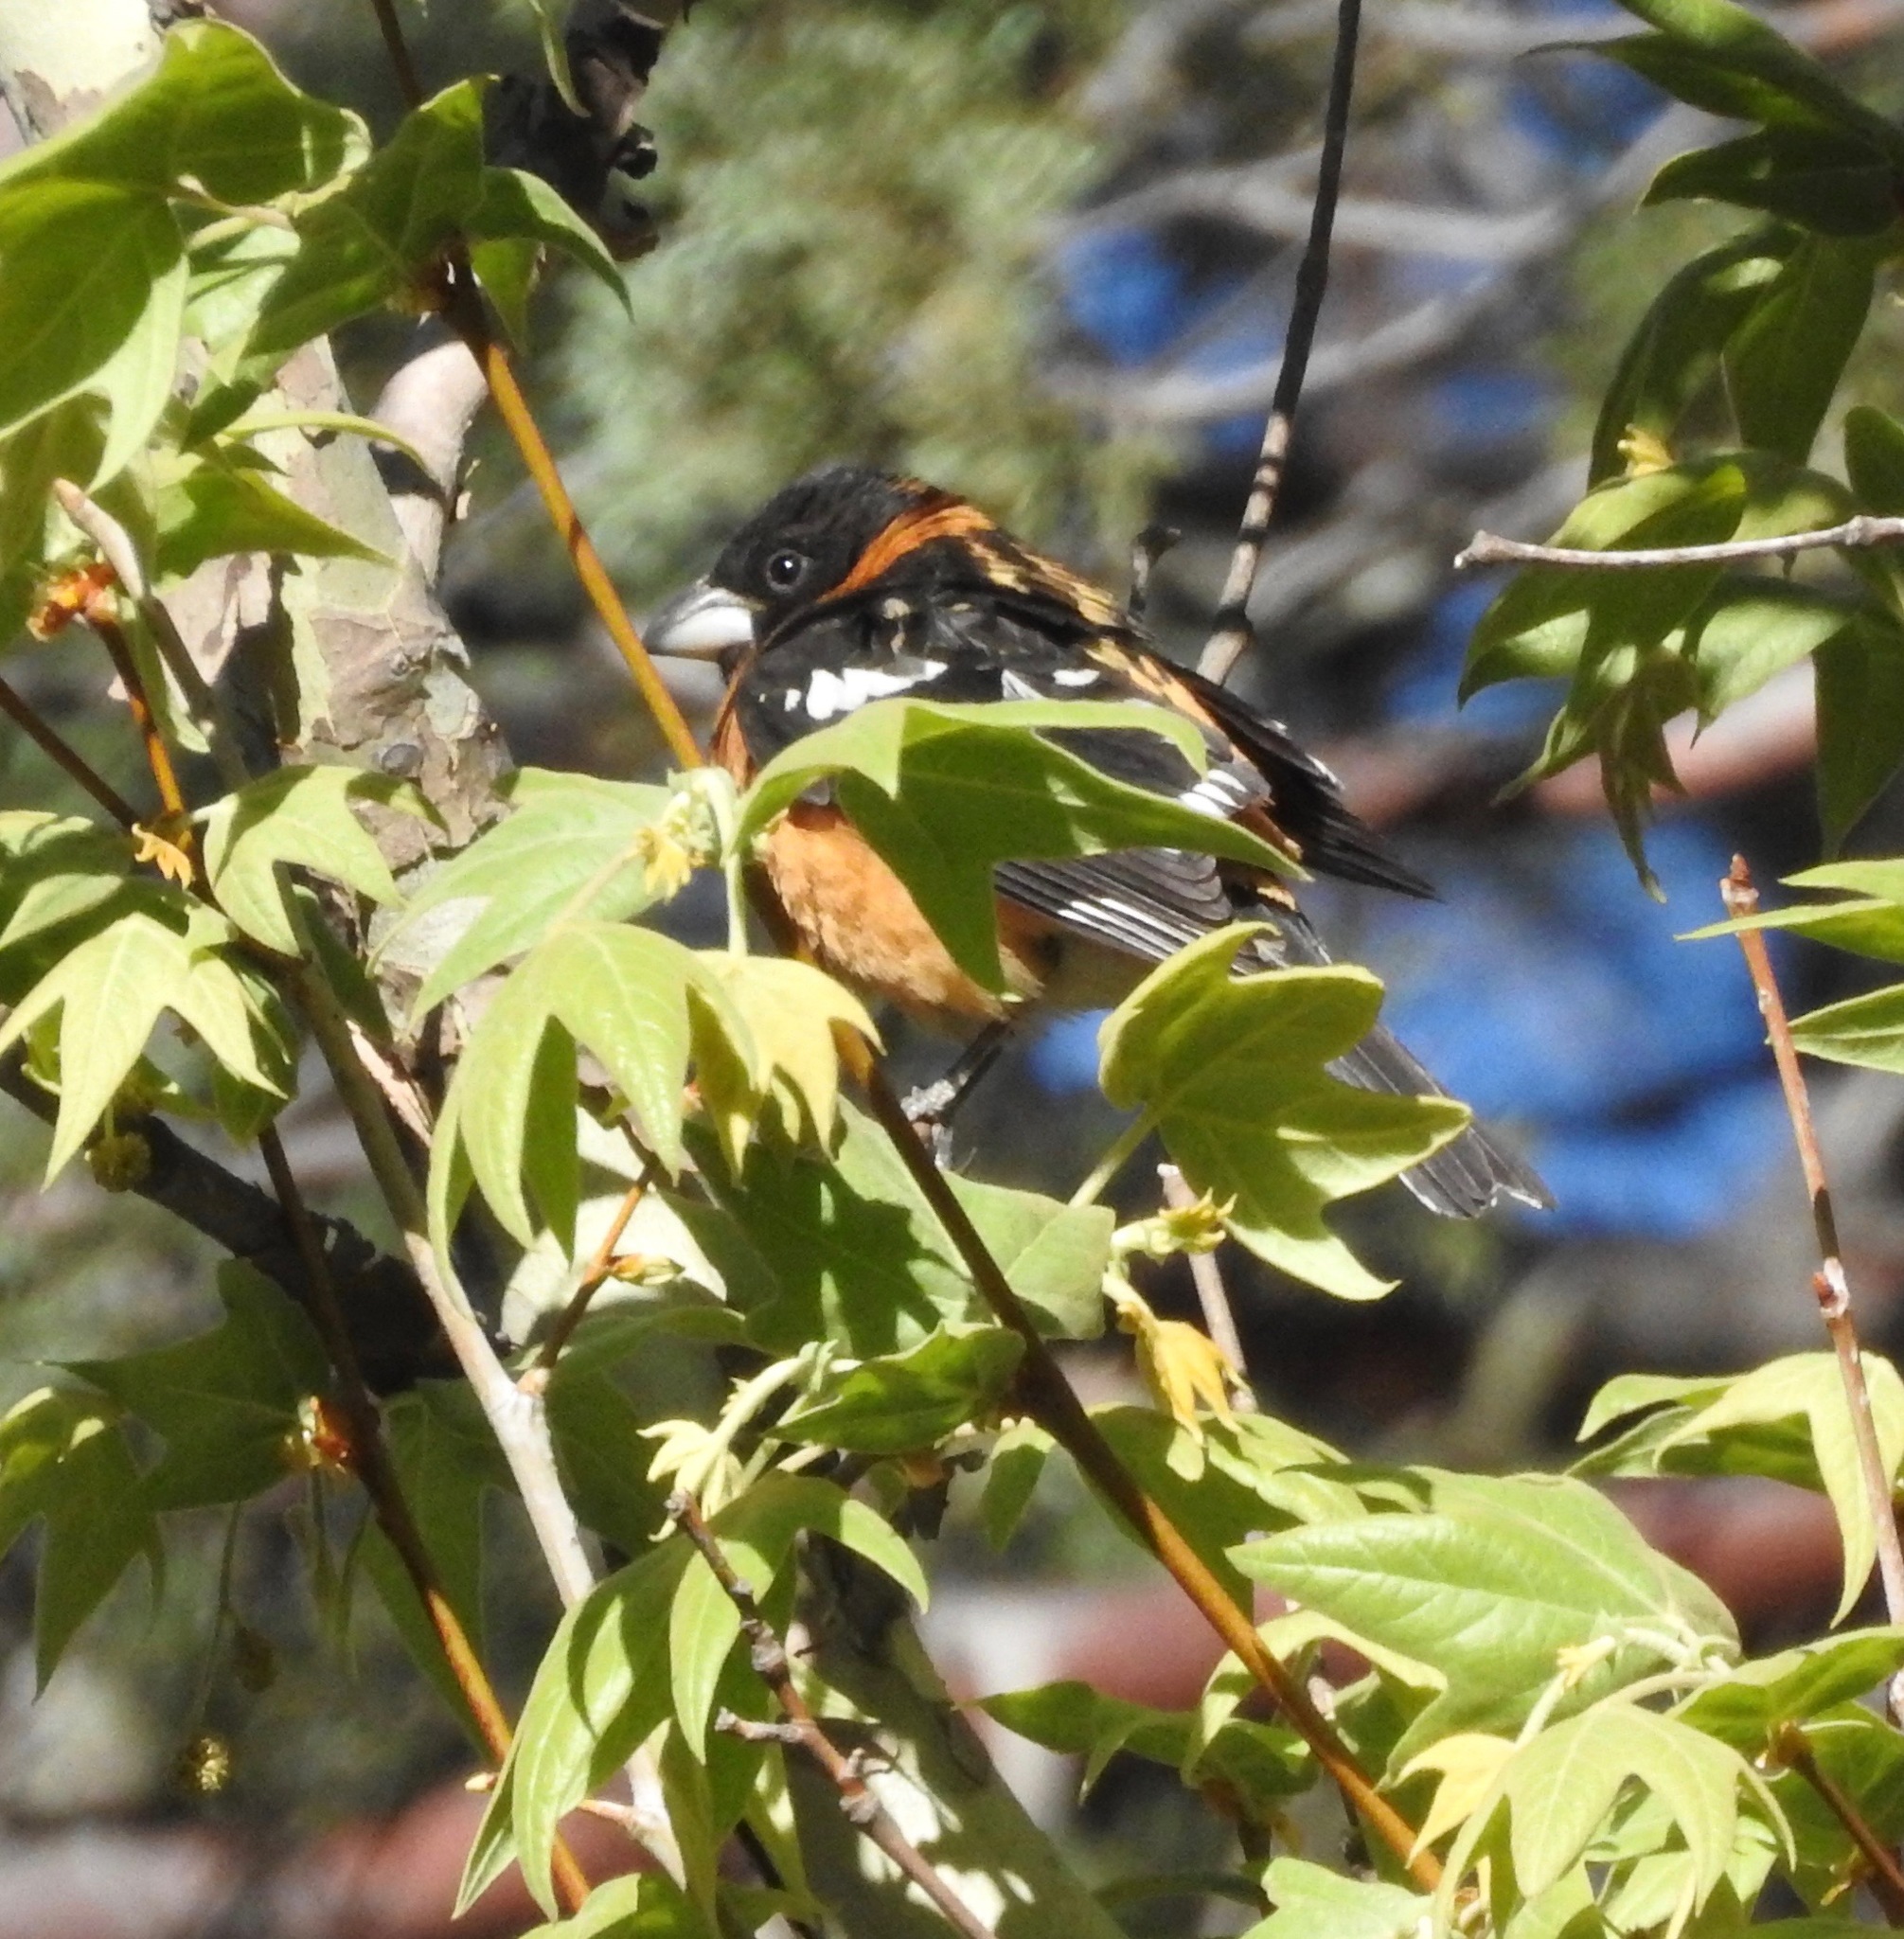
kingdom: Animalia
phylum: Chordata
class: Aves
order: Passeriformes
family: Cardinalidae
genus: Pheucticus
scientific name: Pheucticus melanocephalus
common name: Black-headed grosbeak
